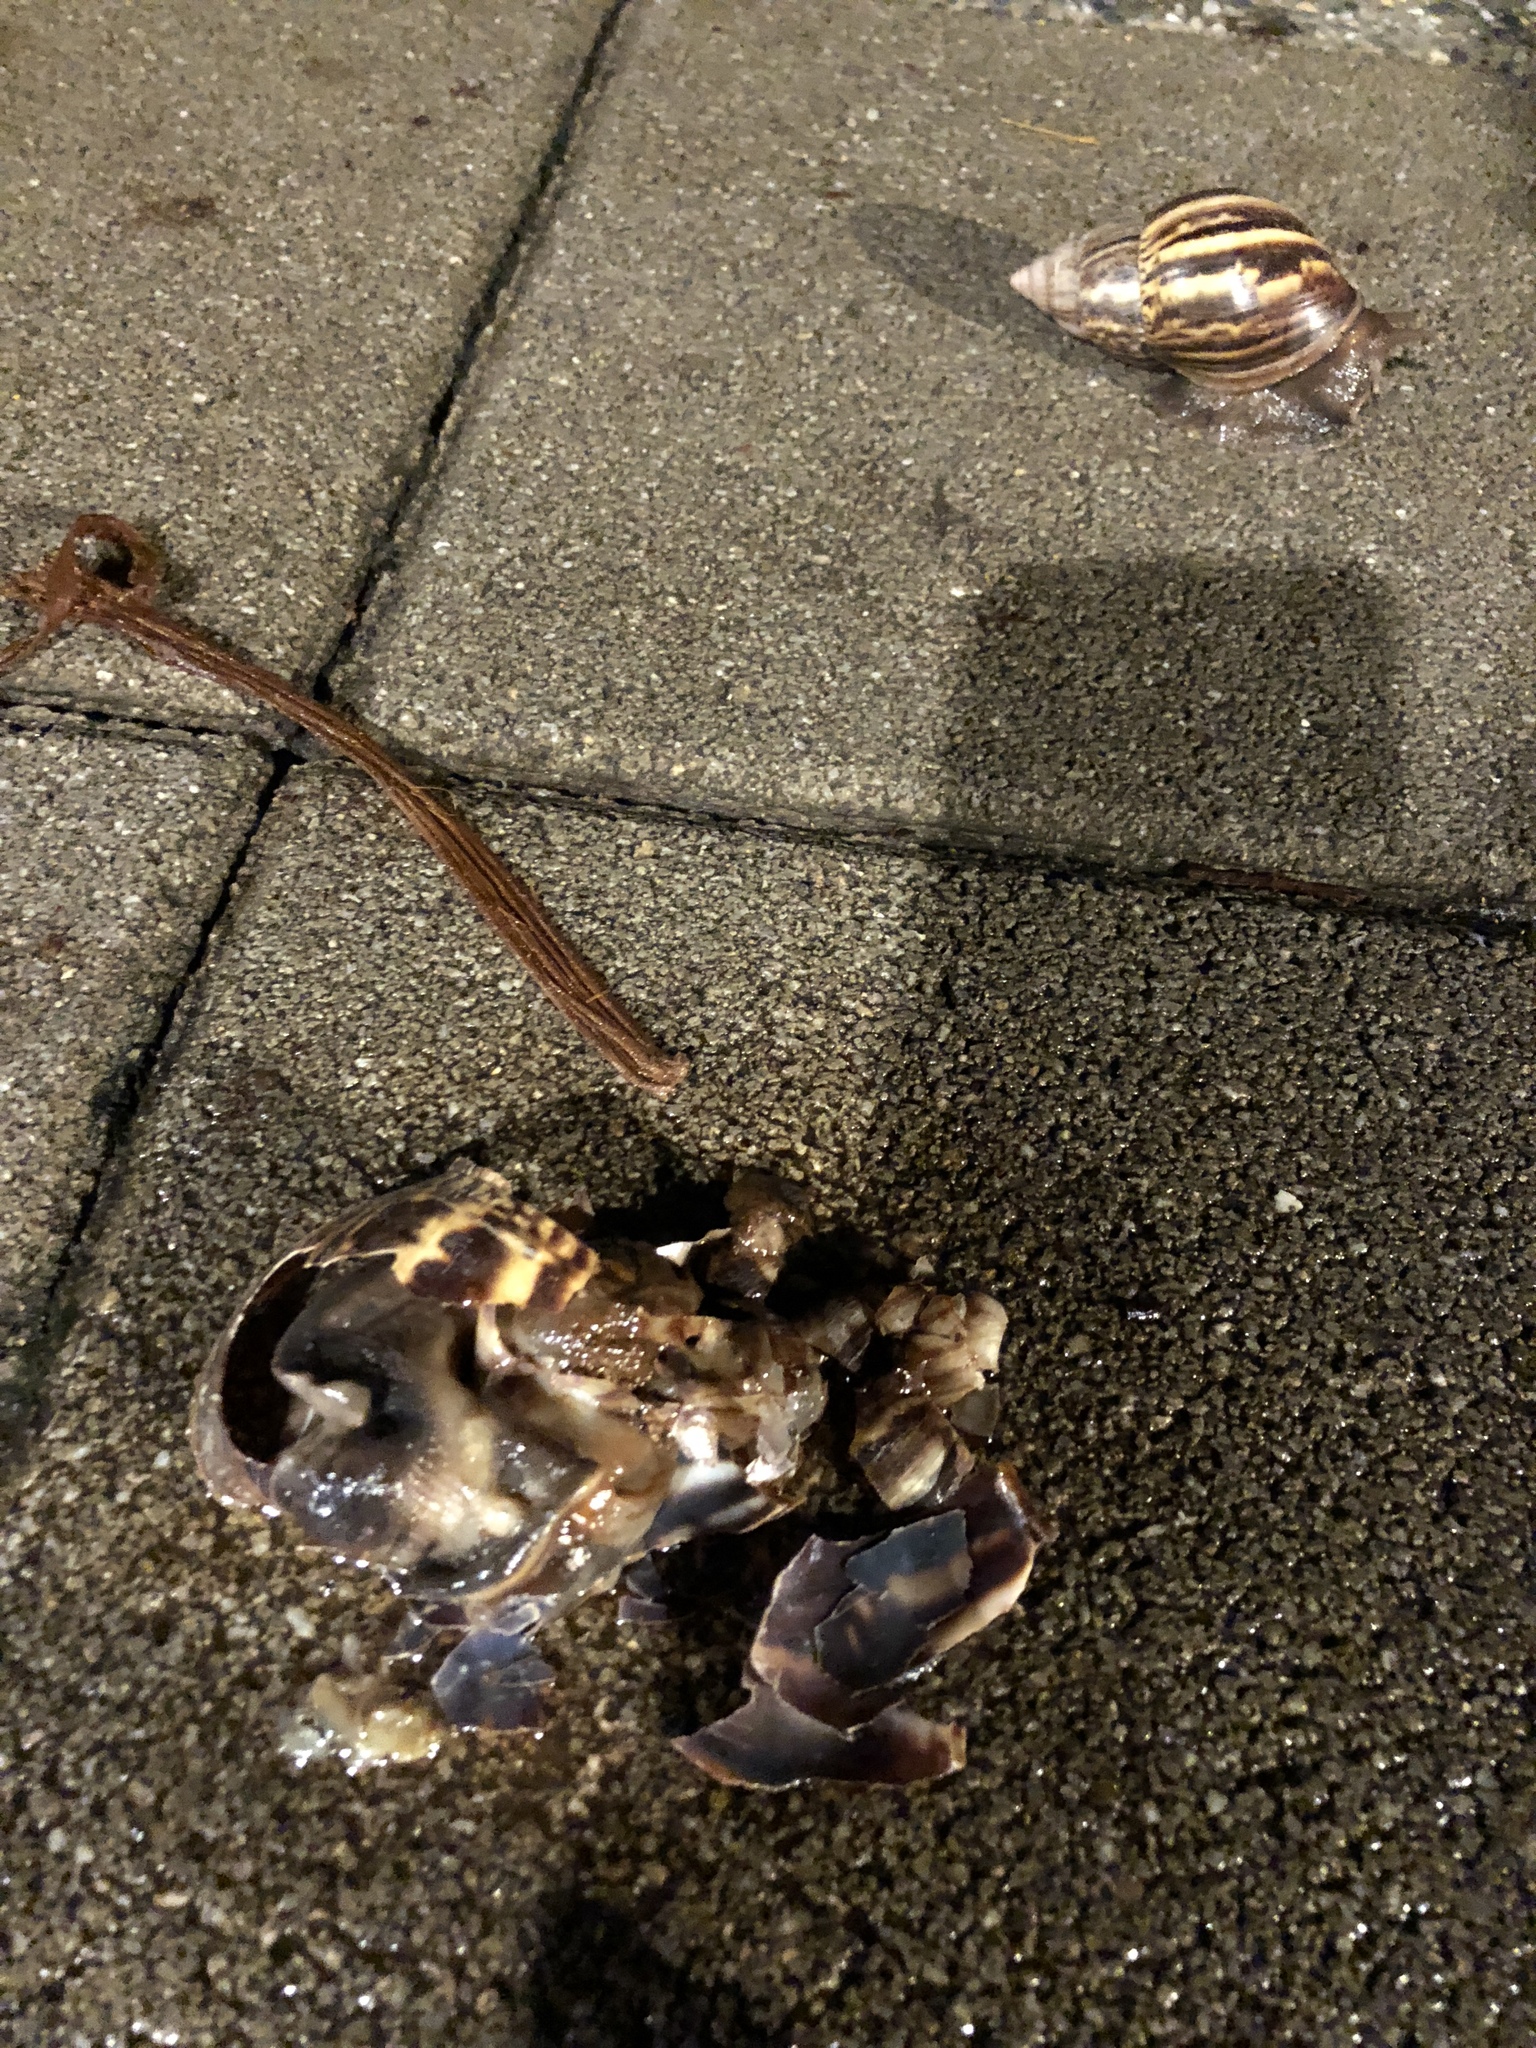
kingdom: Animalia
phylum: Mollusca
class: Gastropoda
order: Stylommatophora
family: Achatinidae
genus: Lissachatina
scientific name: Lissachatina fulica
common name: Giant african snail
